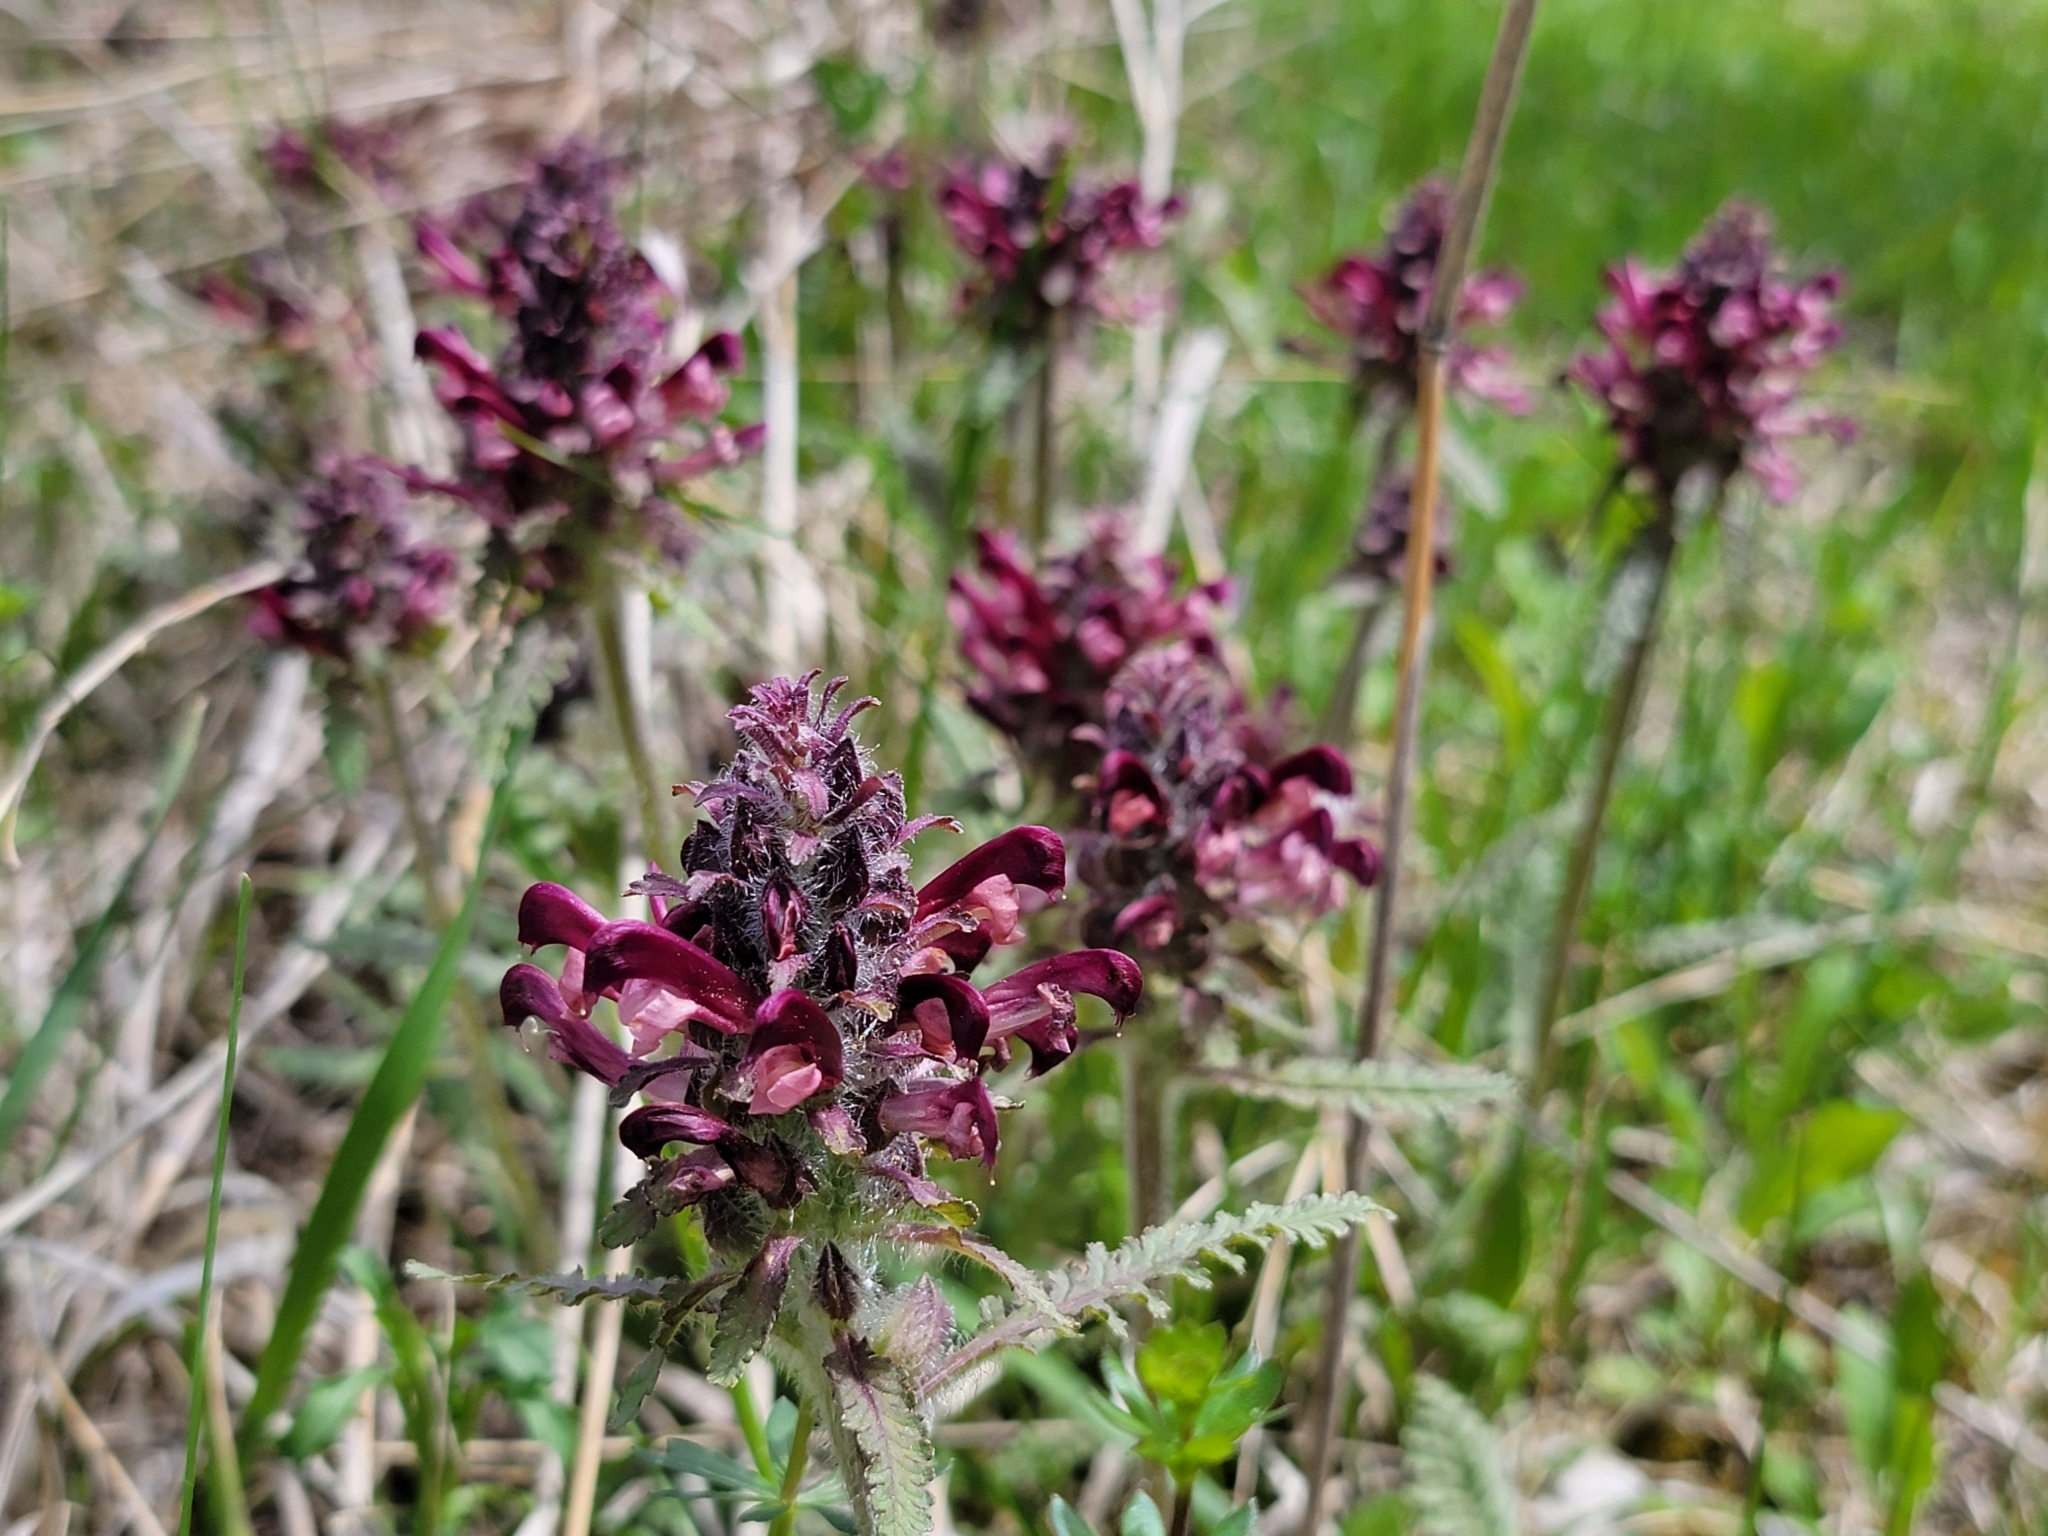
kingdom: Plantae
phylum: Tracheophyta
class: Magnoliopsida
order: Lamiales
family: Orobanchaceae
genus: Pedicularis
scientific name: Pedicularis canadensis
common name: Early lousewort
